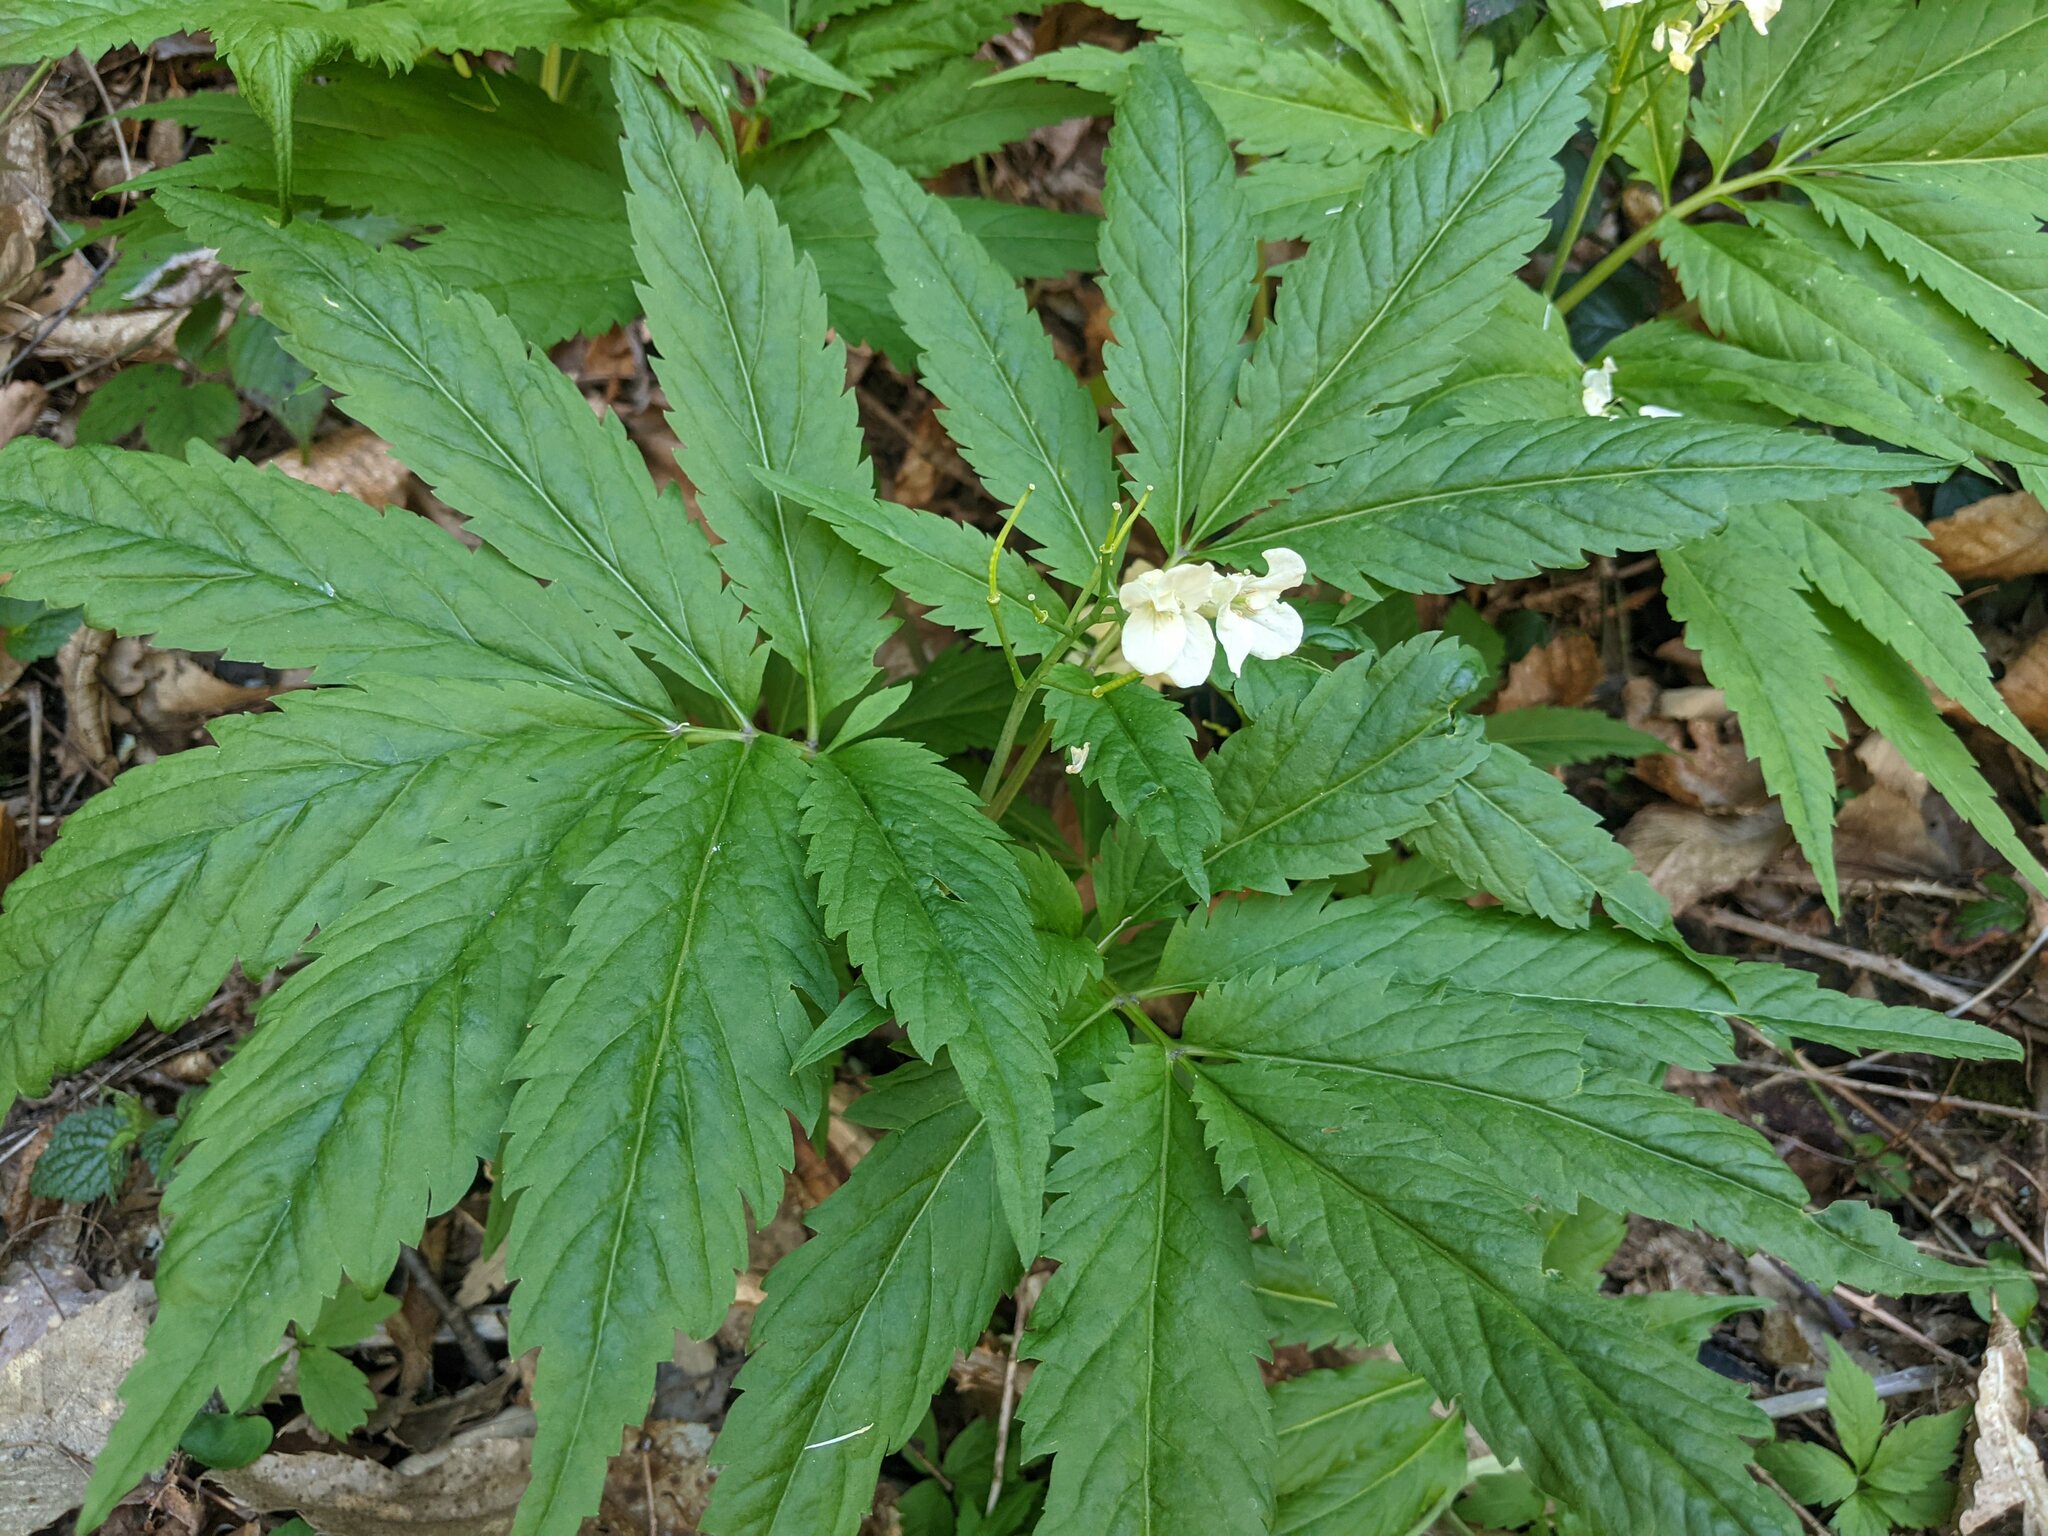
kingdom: Plantae
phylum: Tracheophyta
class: Magnoliopsida
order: Brassicales
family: Brassicaceae
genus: Cardamine
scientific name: Cardamine kitaibelii
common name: Kitaibel's bitter-cress
